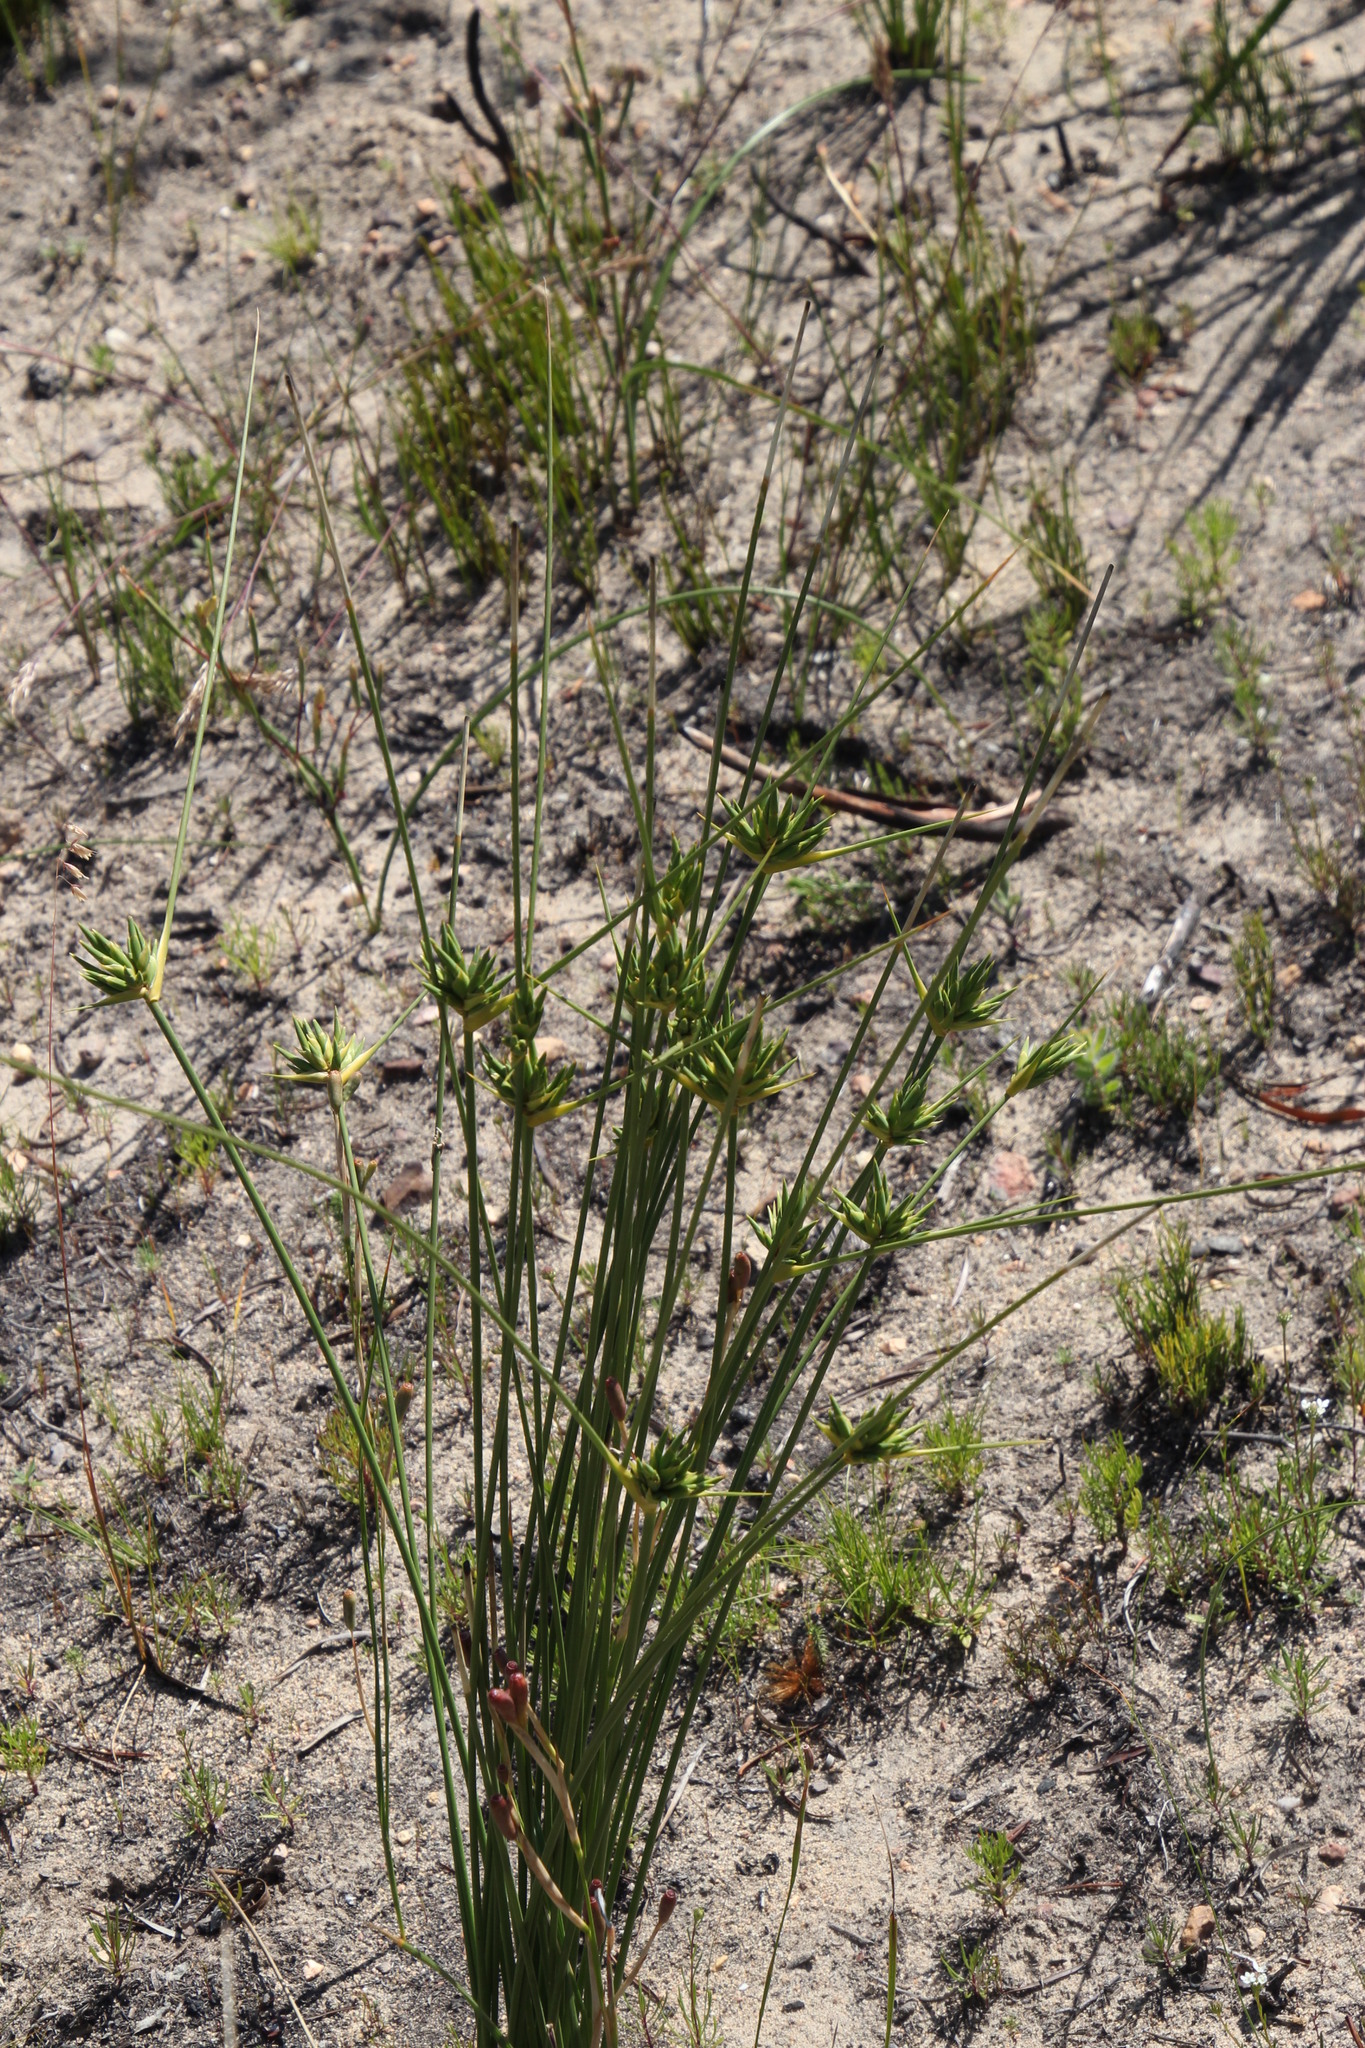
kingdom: Plantae
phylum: Tracheophyta
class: Liliopsida
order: Asparagales
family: Iridaceae
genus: Bobartia
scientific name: Bobartia longicyma
